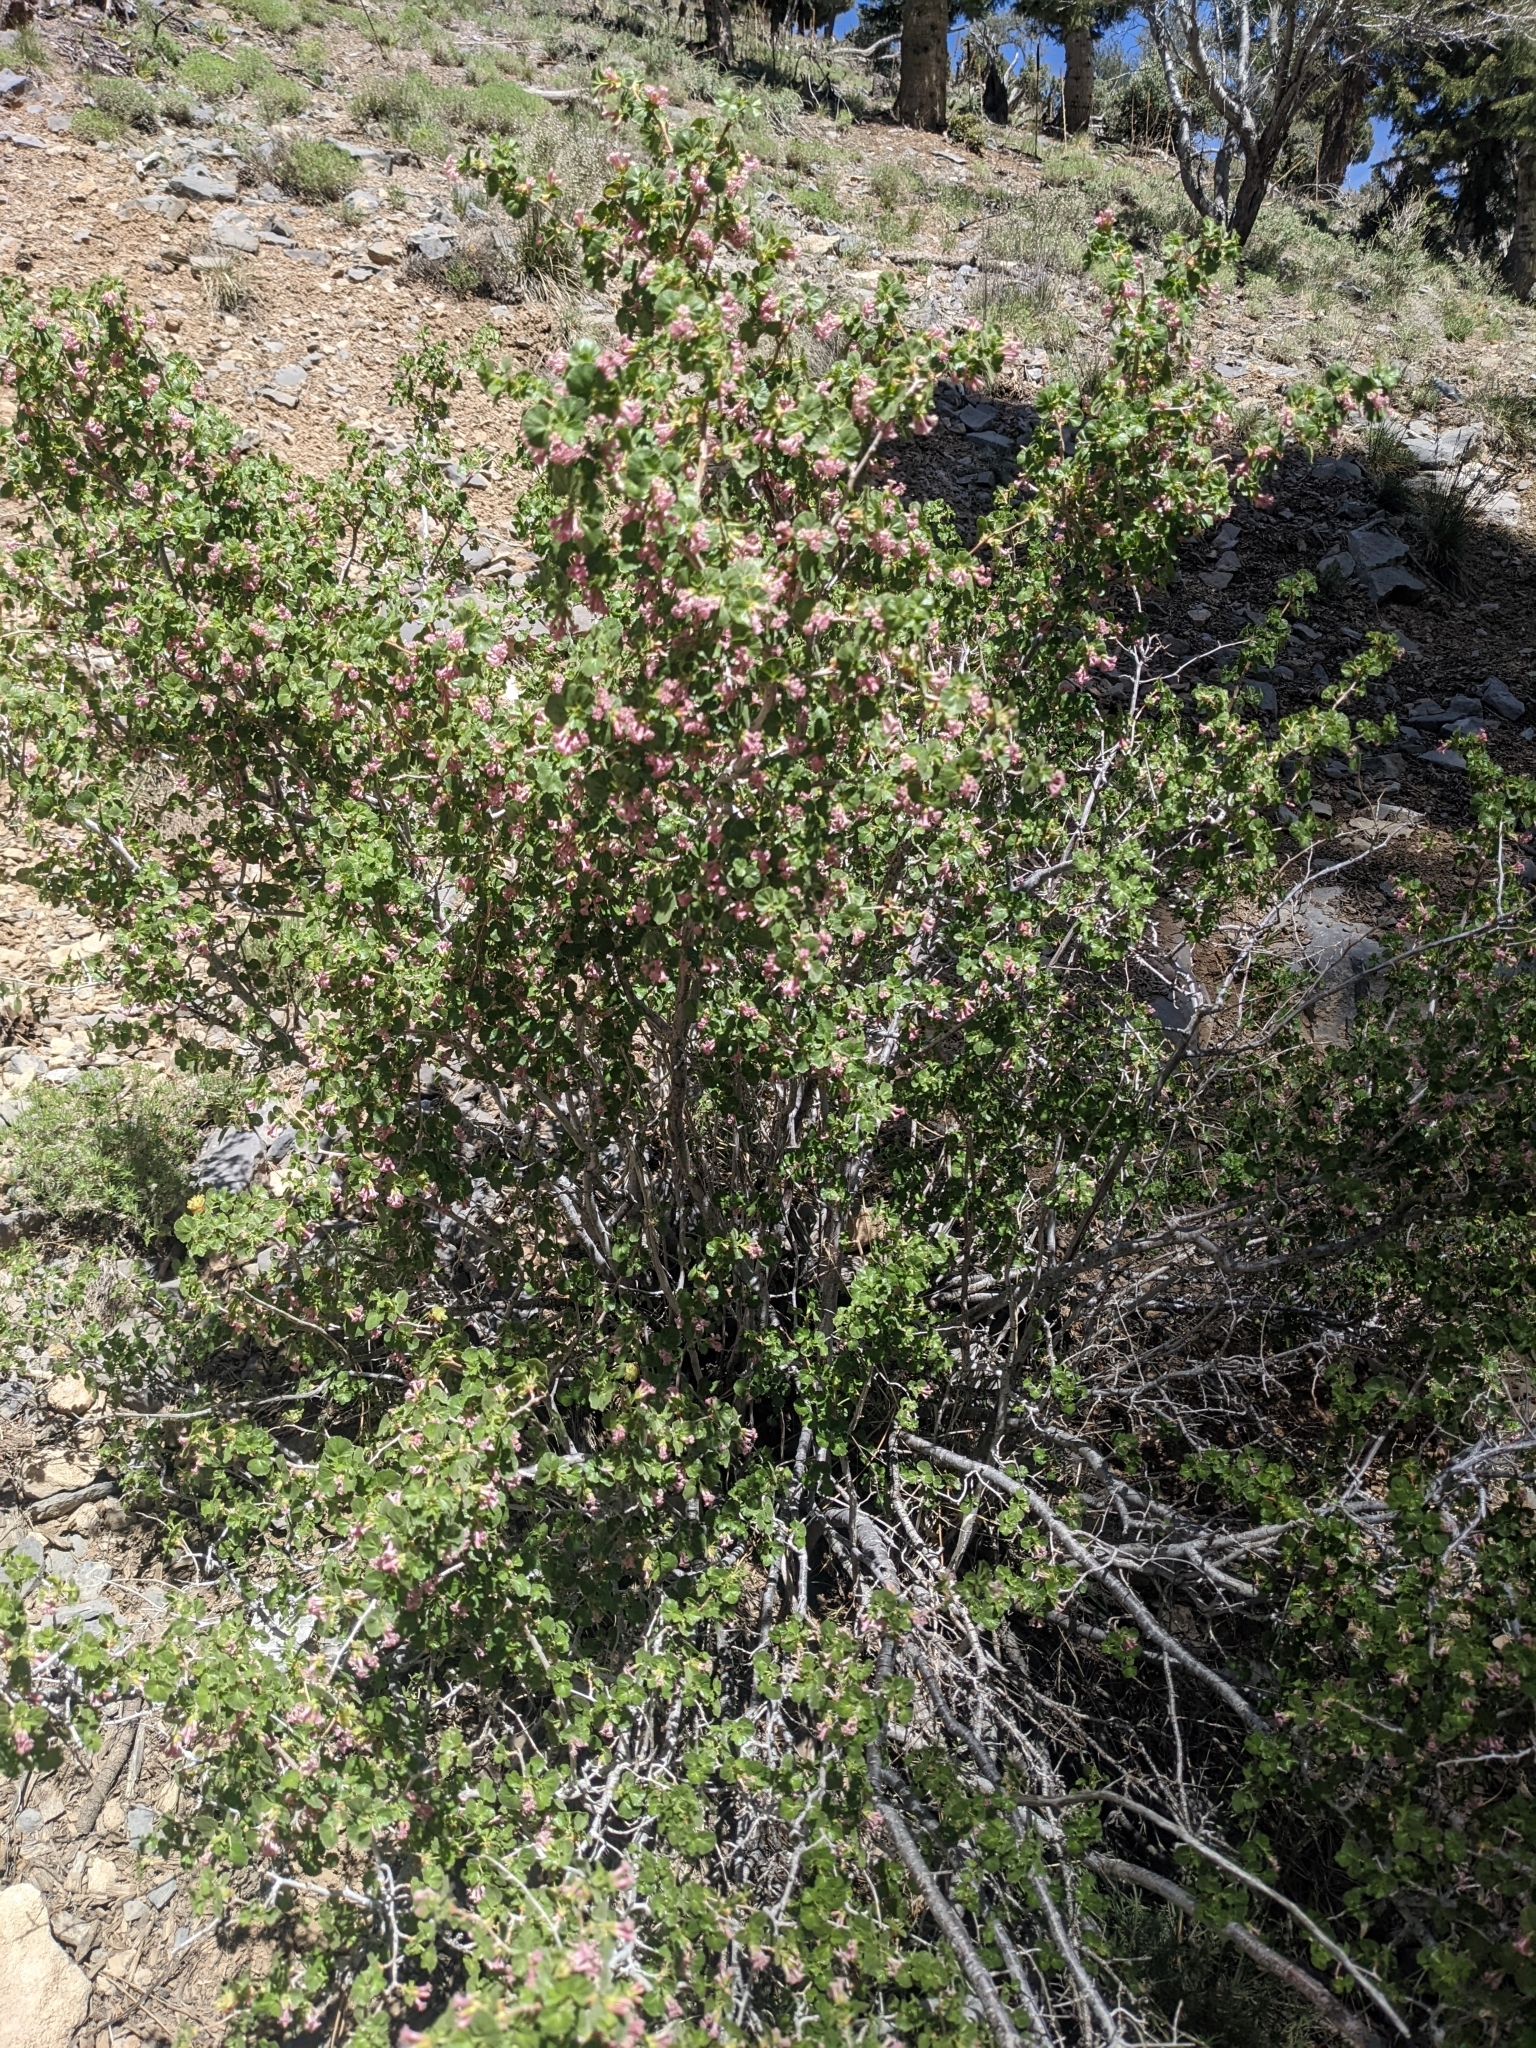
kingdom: Plantae
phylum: Tracheophyta
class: Magnoliopsida
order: Saxifragales
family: Grossulariaceae
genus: Ribes
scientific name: Ribes cereum
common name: Wax currant
